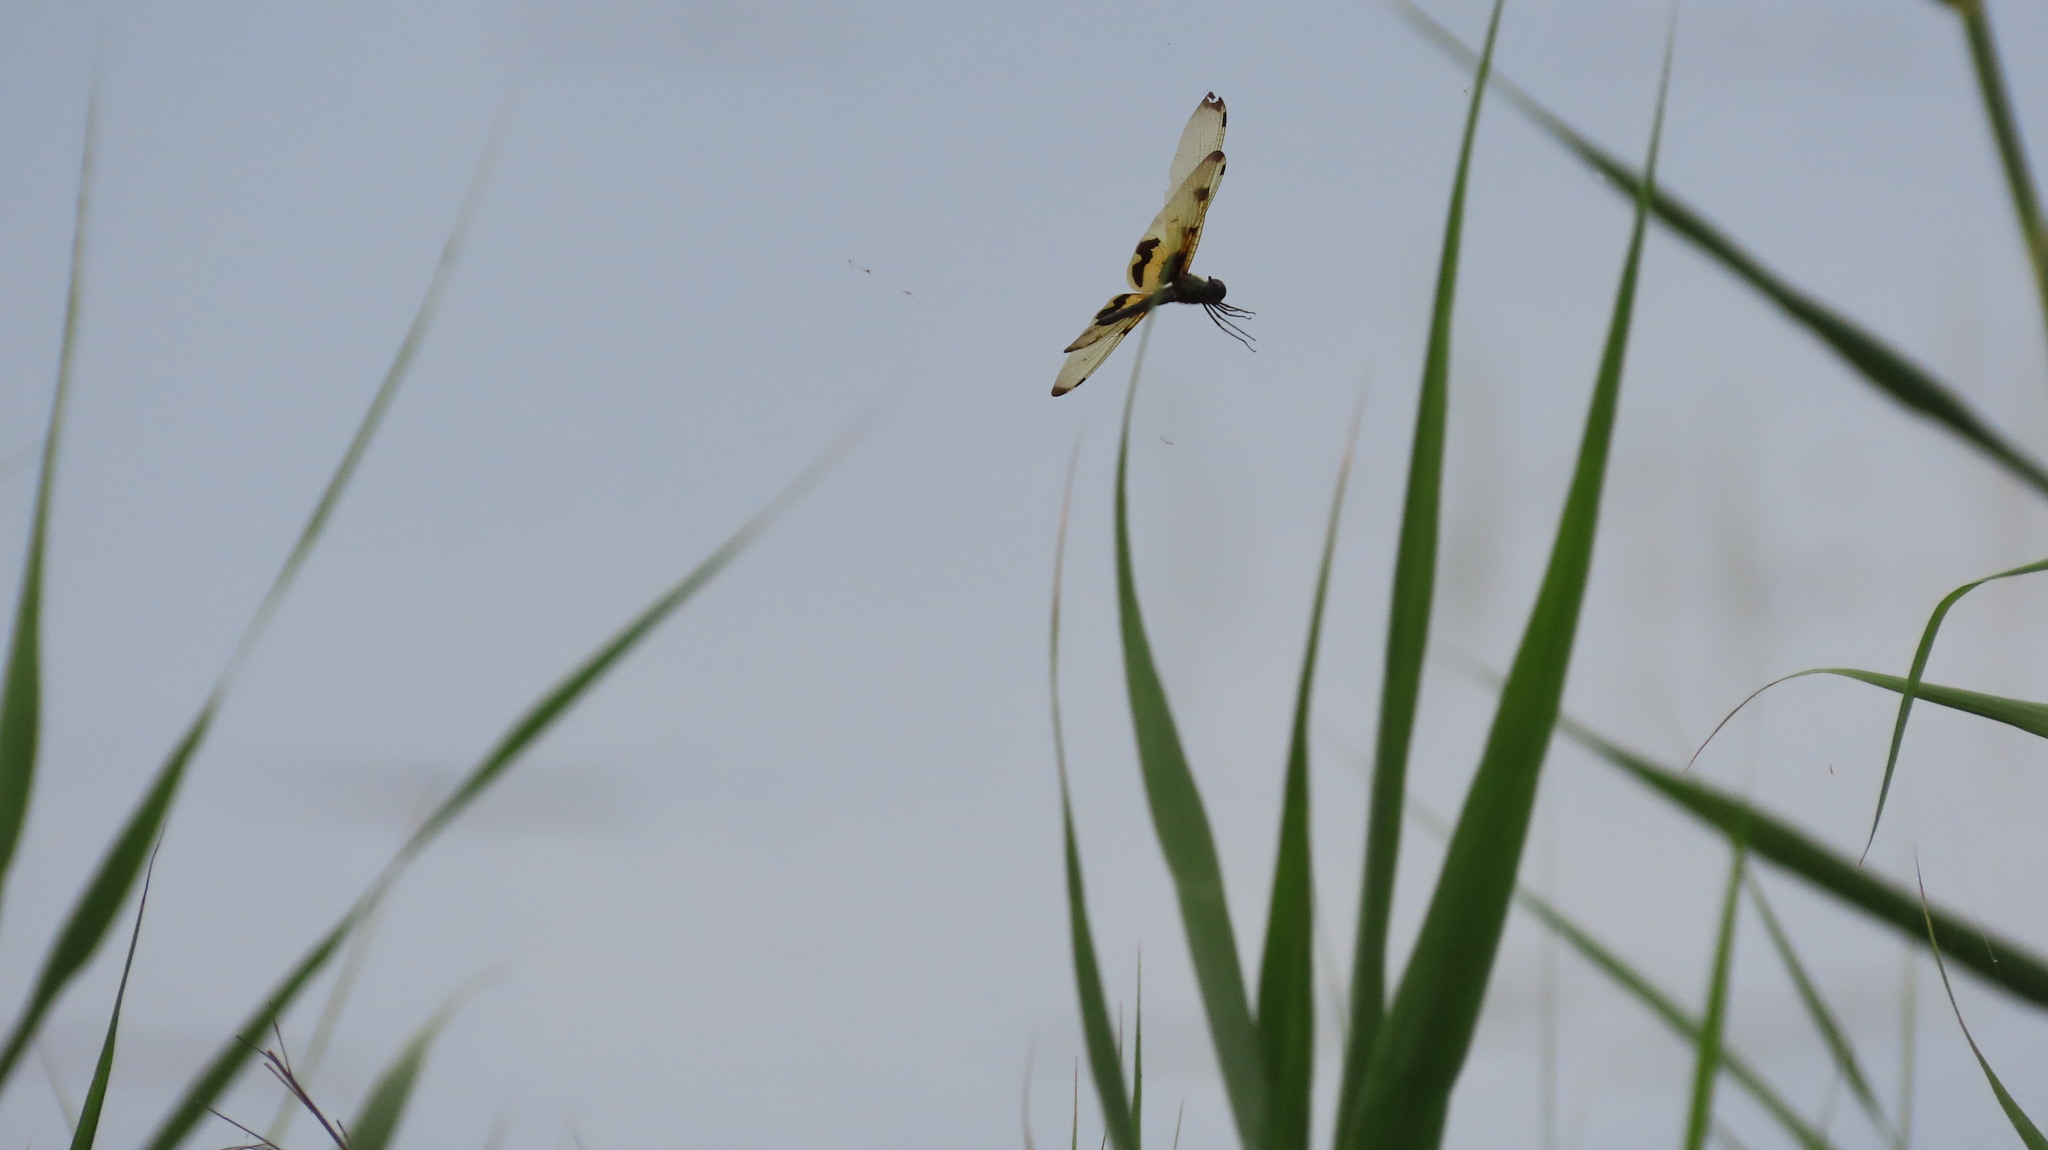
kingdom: Animalia
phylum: Arthropoda
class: Insecta
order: Odonata
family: Libellulidae
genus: Rhyothemis
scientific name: Rhyothemis variegata
